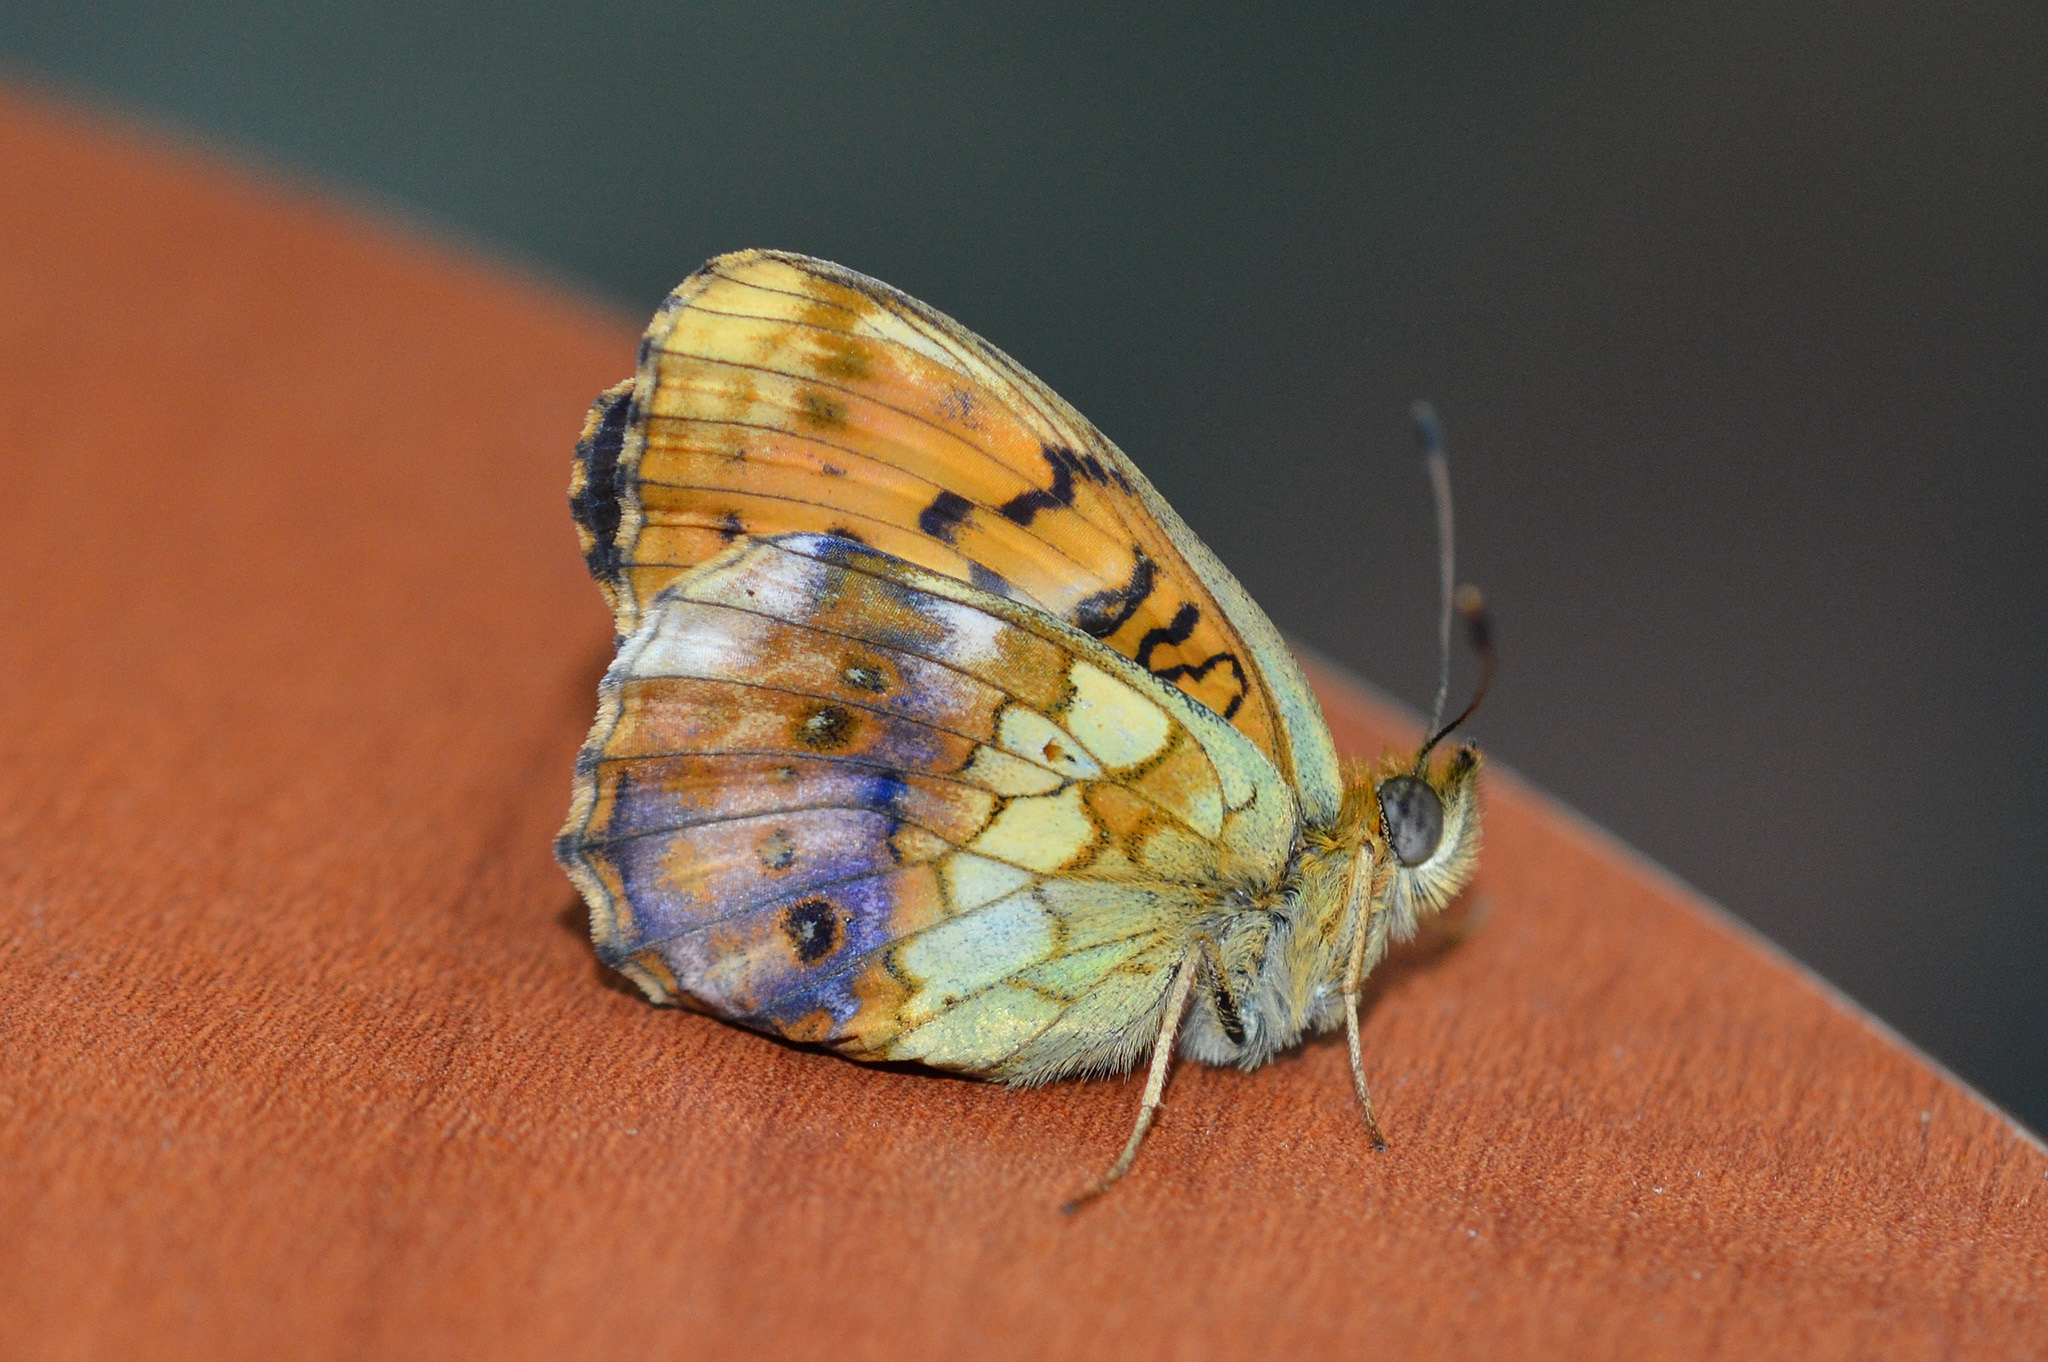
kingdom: Animalia
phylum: Arthropoda
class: Insecta
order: Lepidoptera
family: Nymphalidae
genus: Brenthis
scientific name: Brenthis daphne
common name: Marbled fritillary
